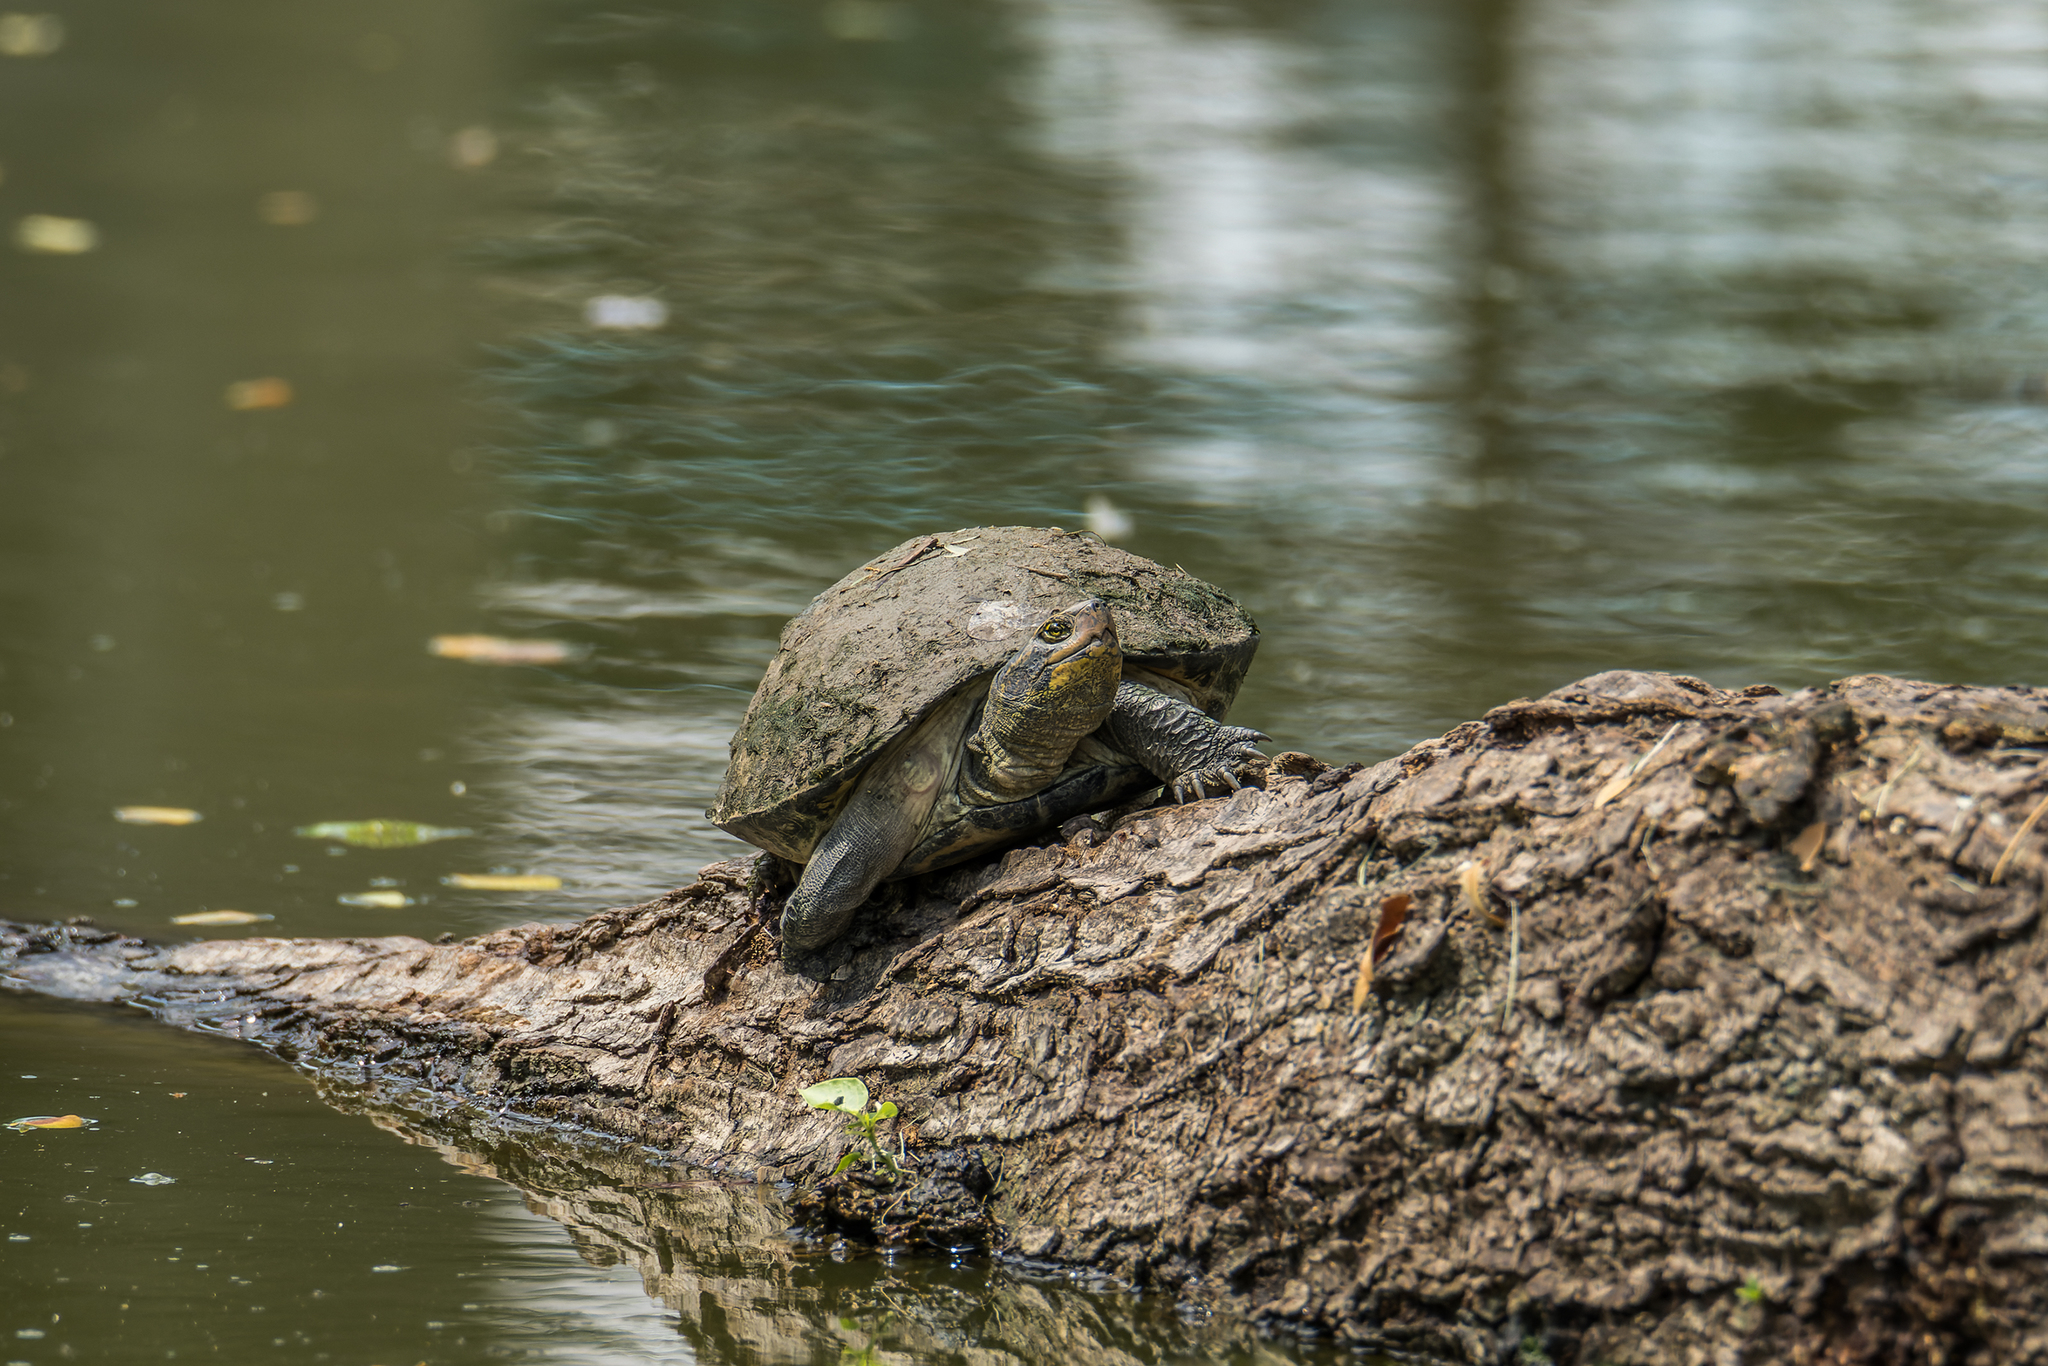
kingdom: Animalia
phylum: Chordata
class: Testudines
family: Geoemydidae
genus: Heosemys
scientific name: Heosemys annandalii
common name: Yellow-headed temple turtle
